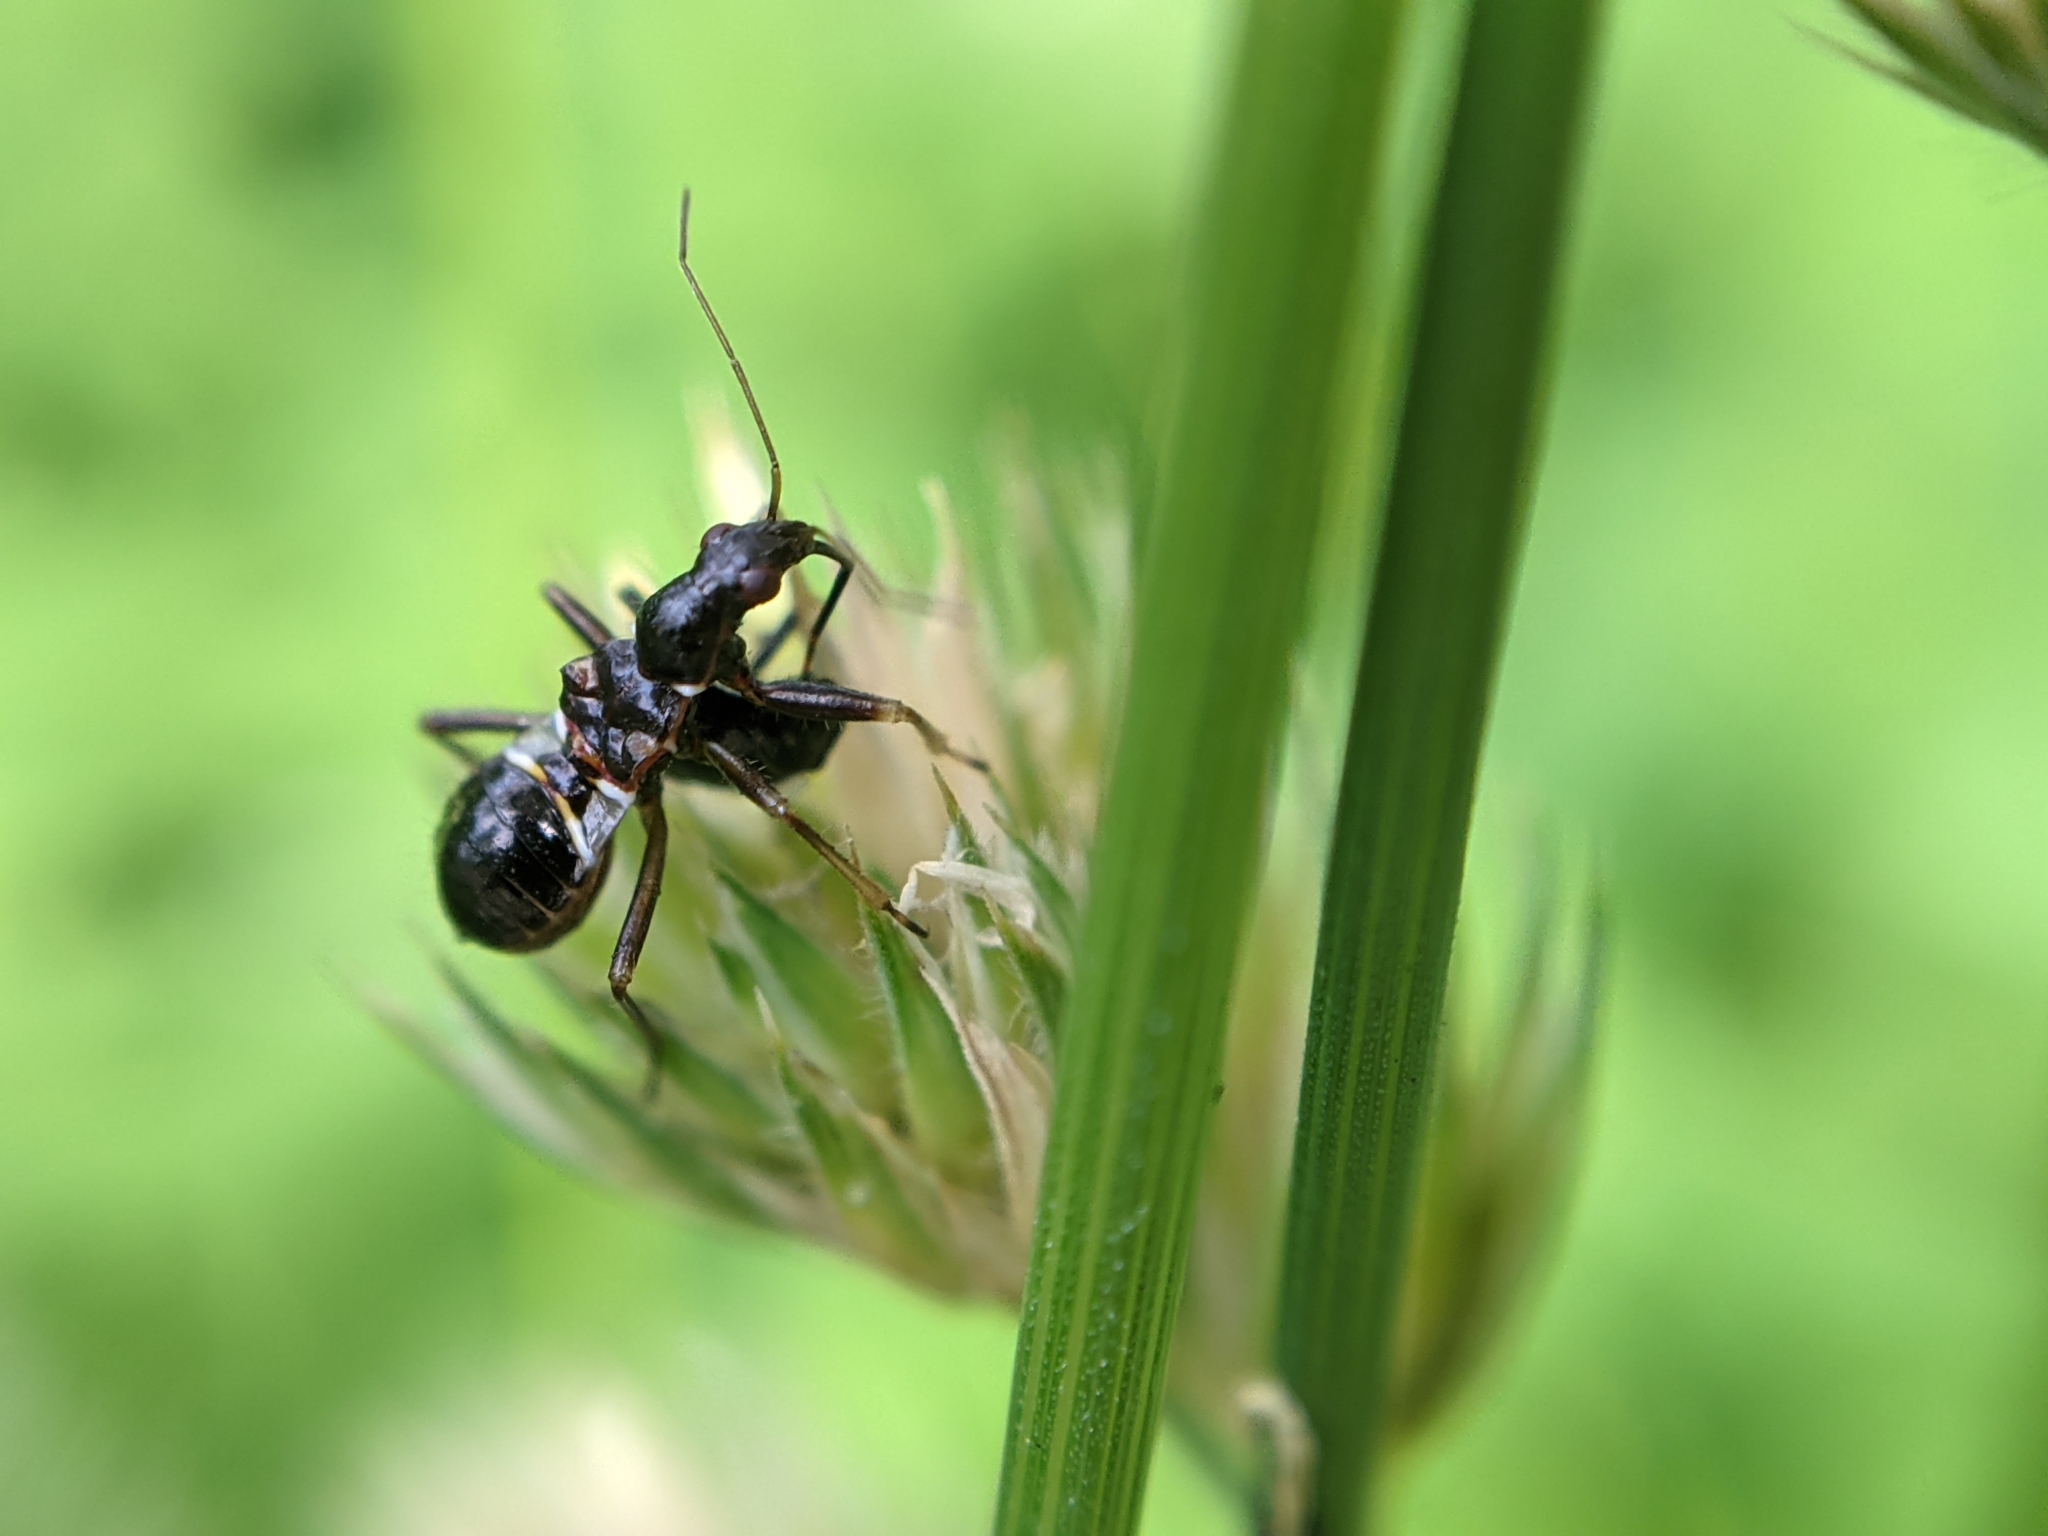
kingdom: Animalia
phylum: Arthropoda
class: Insecta
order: Hemiptera
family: Nabidae
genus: Himacerus
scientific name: Himacerus mirmicoides
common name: Ant damsel bug
